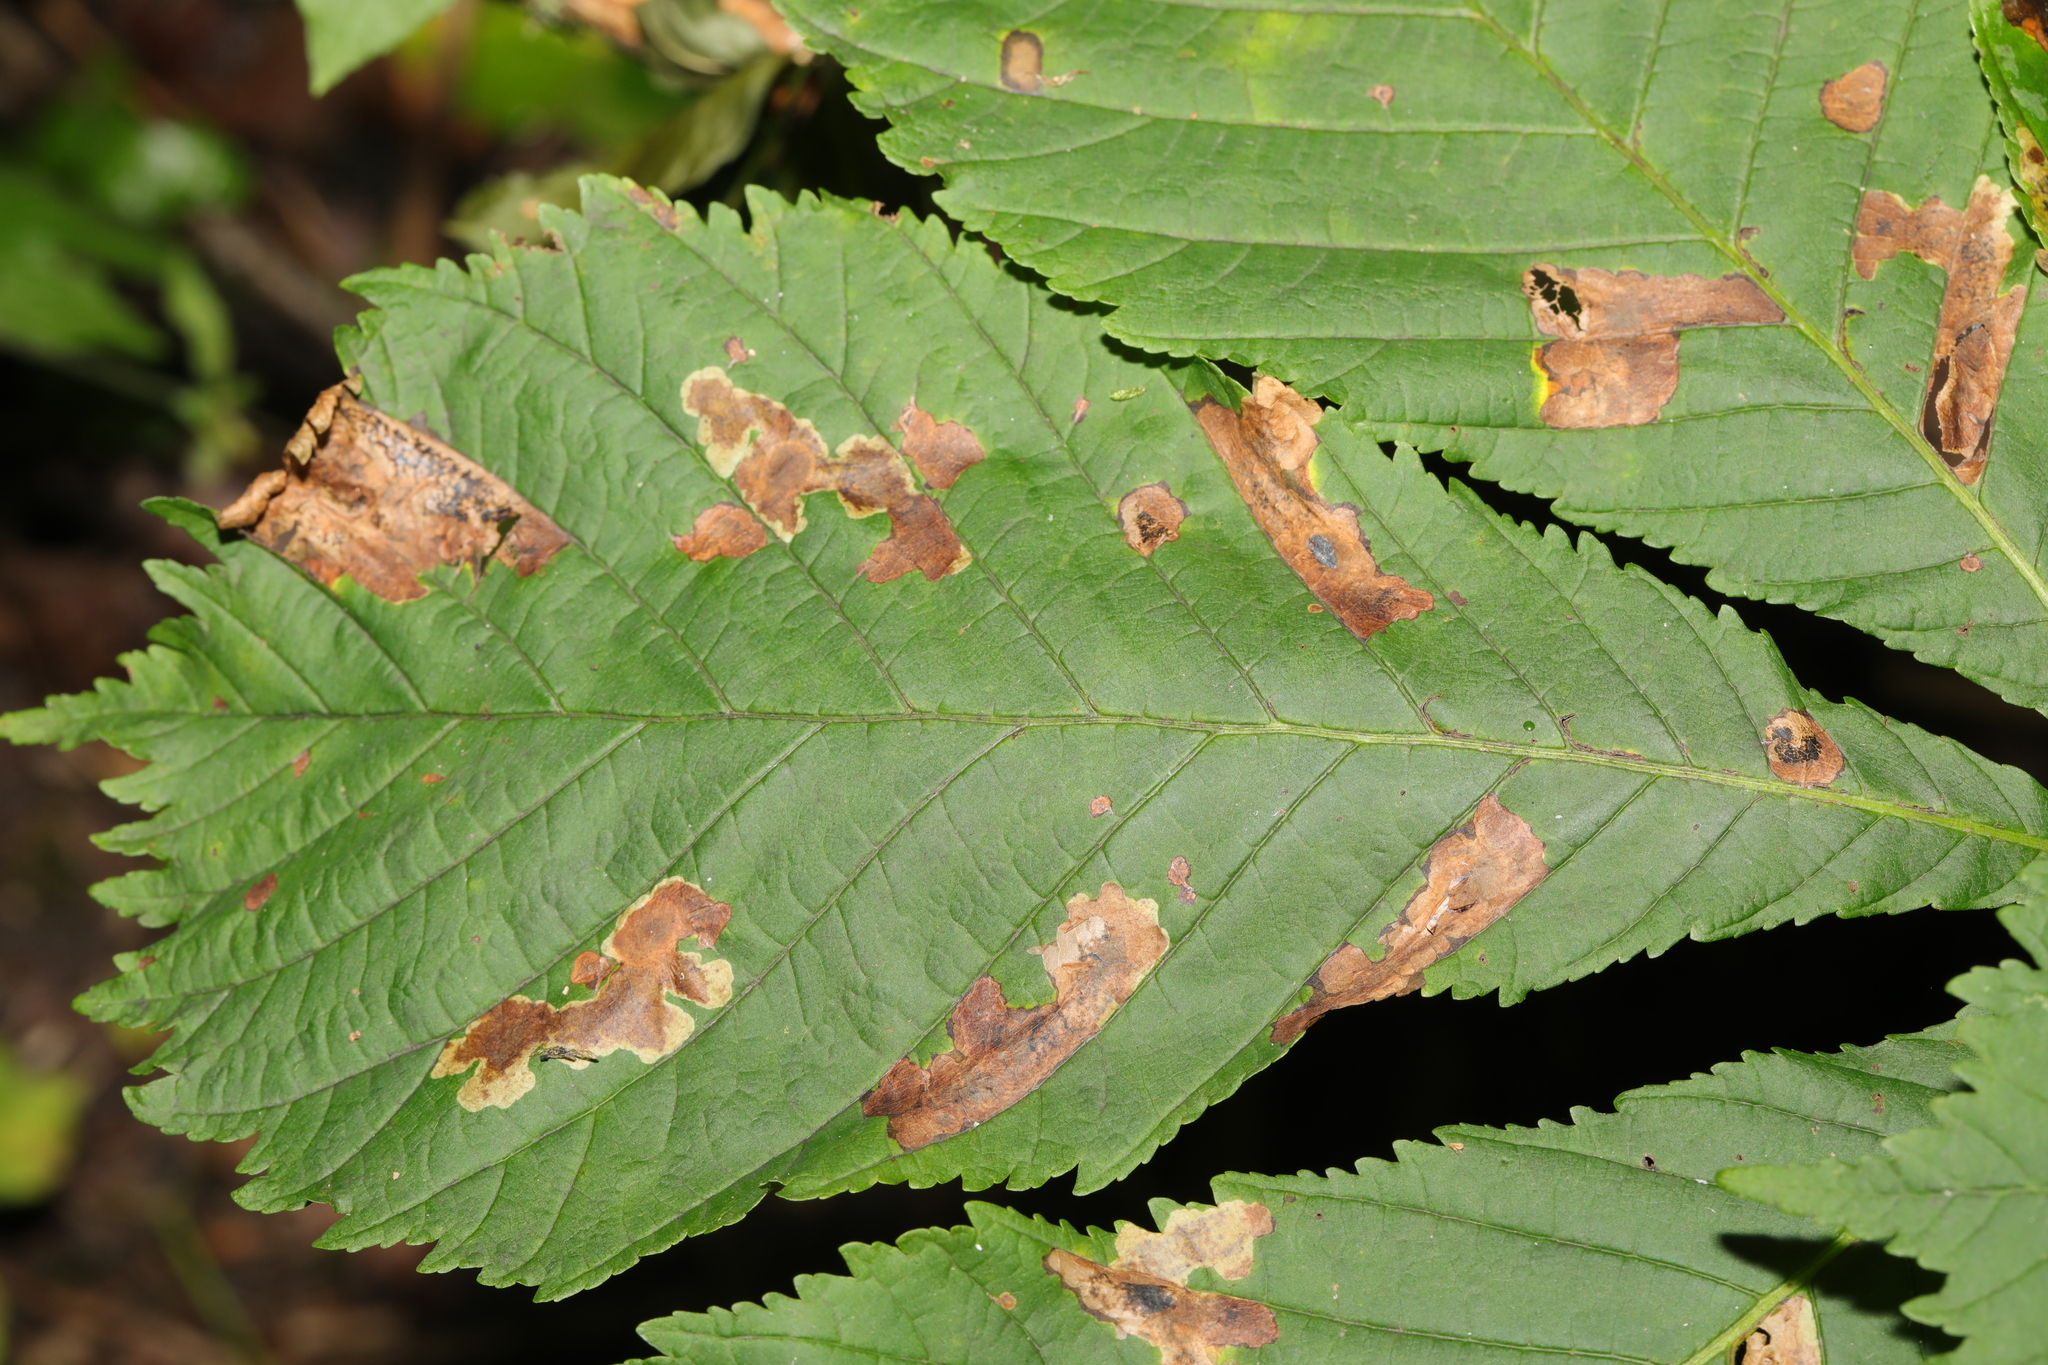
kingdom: Plantae
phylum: Tracheophyta
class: Magnoliopsida
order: Sapindales
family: Sapindaceae
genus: Aesculus
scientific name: Aesculus hippocastanum
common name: Horse-chestnut
